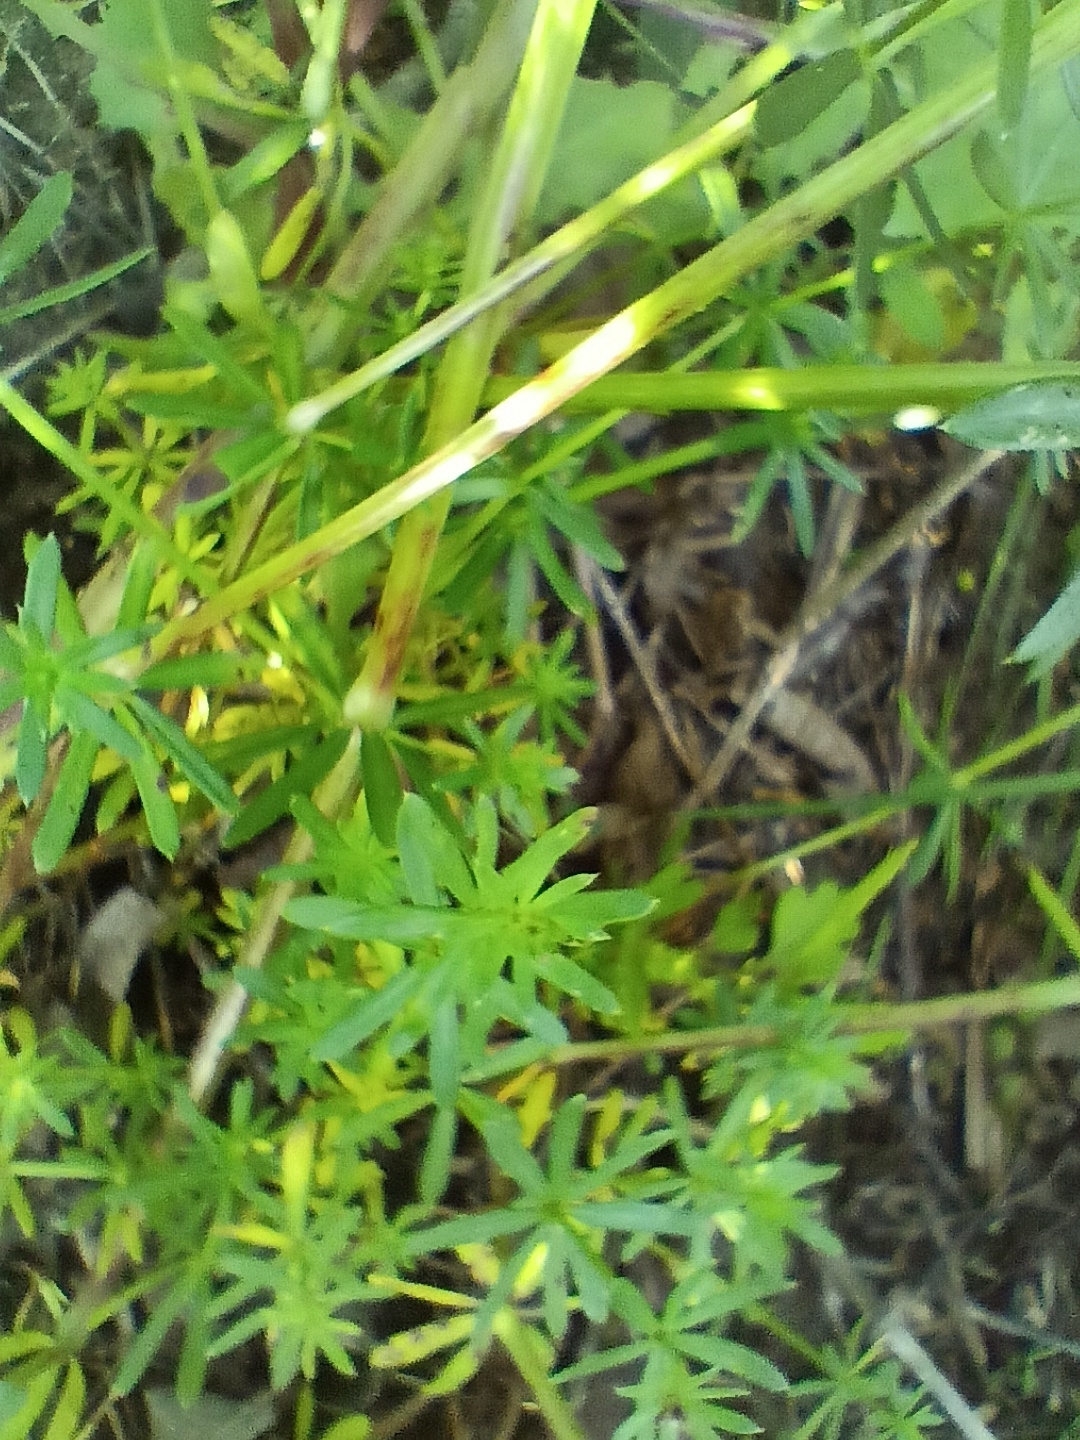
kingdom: Plantae
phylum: Tracheophyta
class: Magnoliopsida
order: Gentianales
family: Rubiaceae
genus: Galium
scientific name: Galium mollugo
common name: Hedge bedstraw
